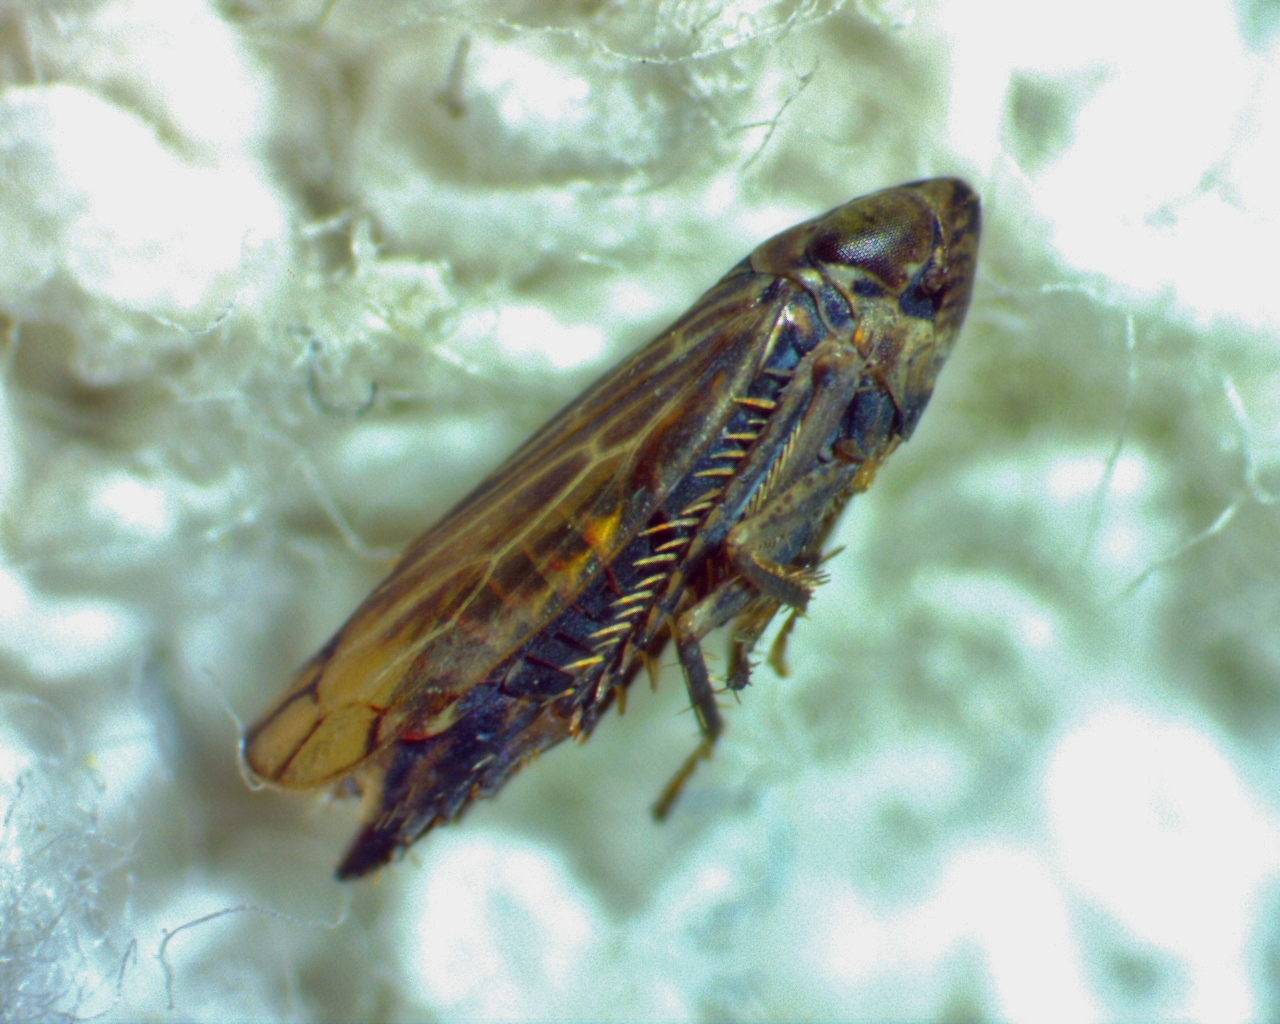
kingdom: Animalia
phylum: Arthropoda
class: Insecta
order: Hemiptera
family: Cicadellidae
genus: Stirellus
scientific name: Stirellus bicolor
